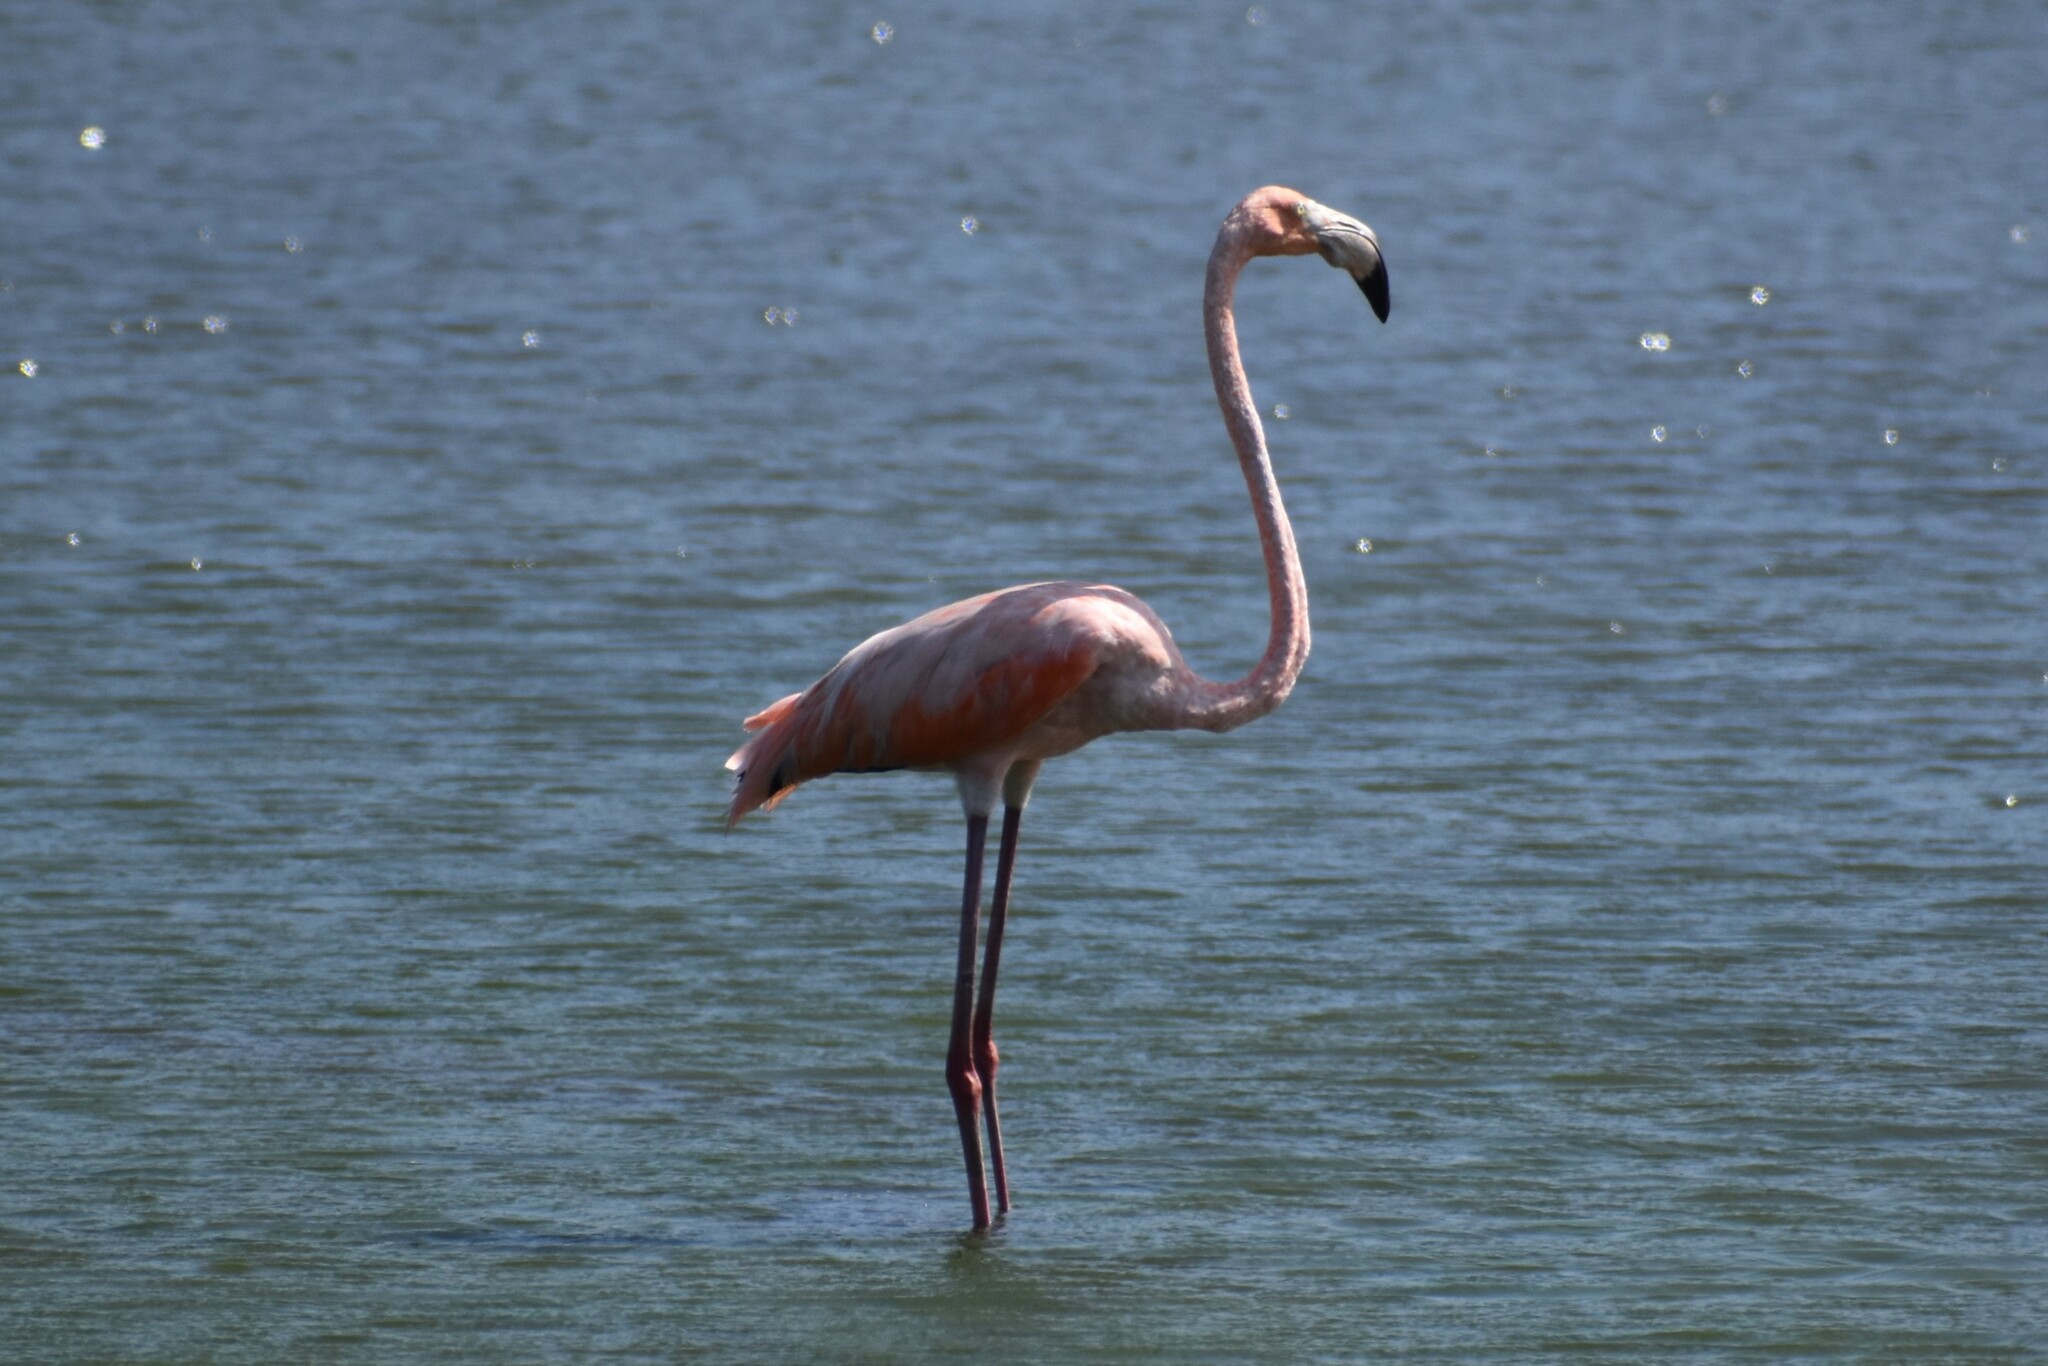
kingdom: Animalia
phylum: Chordata
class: Aves
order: Phoenicopteriformes
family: Phoenicopteridae
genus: Phoenicopterus
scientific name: Phoenicopterus ruber
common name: American flamingo
